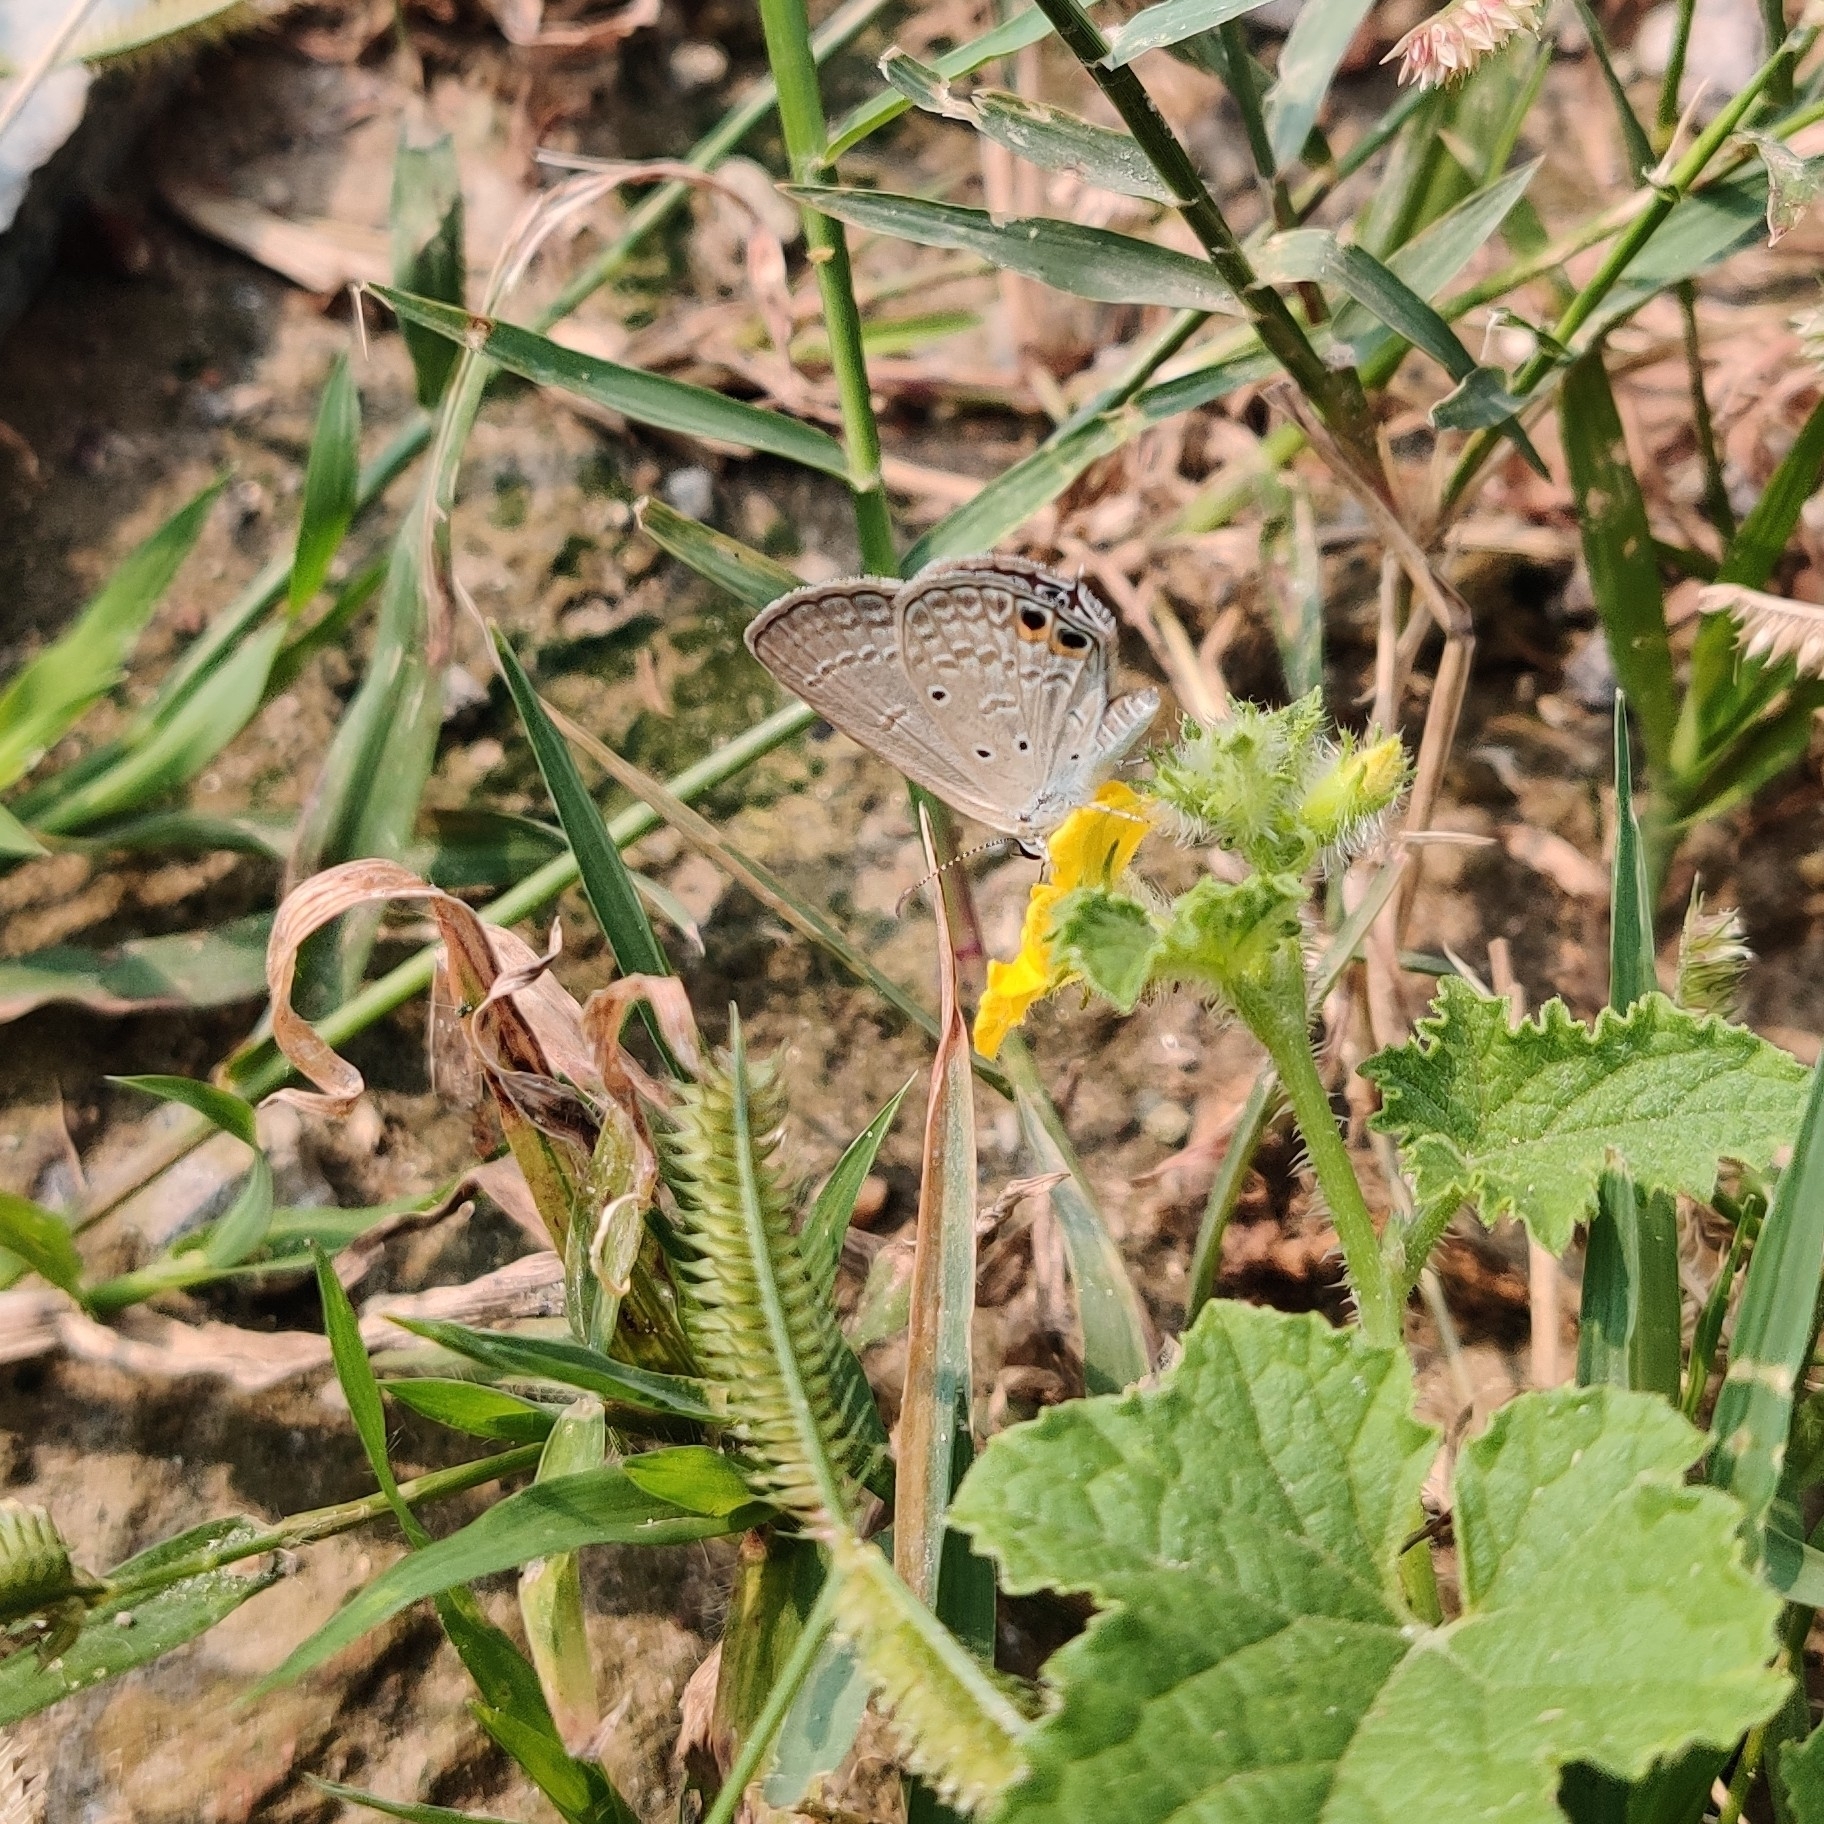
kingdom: Animalia
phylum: Arthropoda
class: Insecta
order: Lepidoptera
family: Lycaenidae
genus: Euchrysops
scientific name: Euchrysops cnejus
